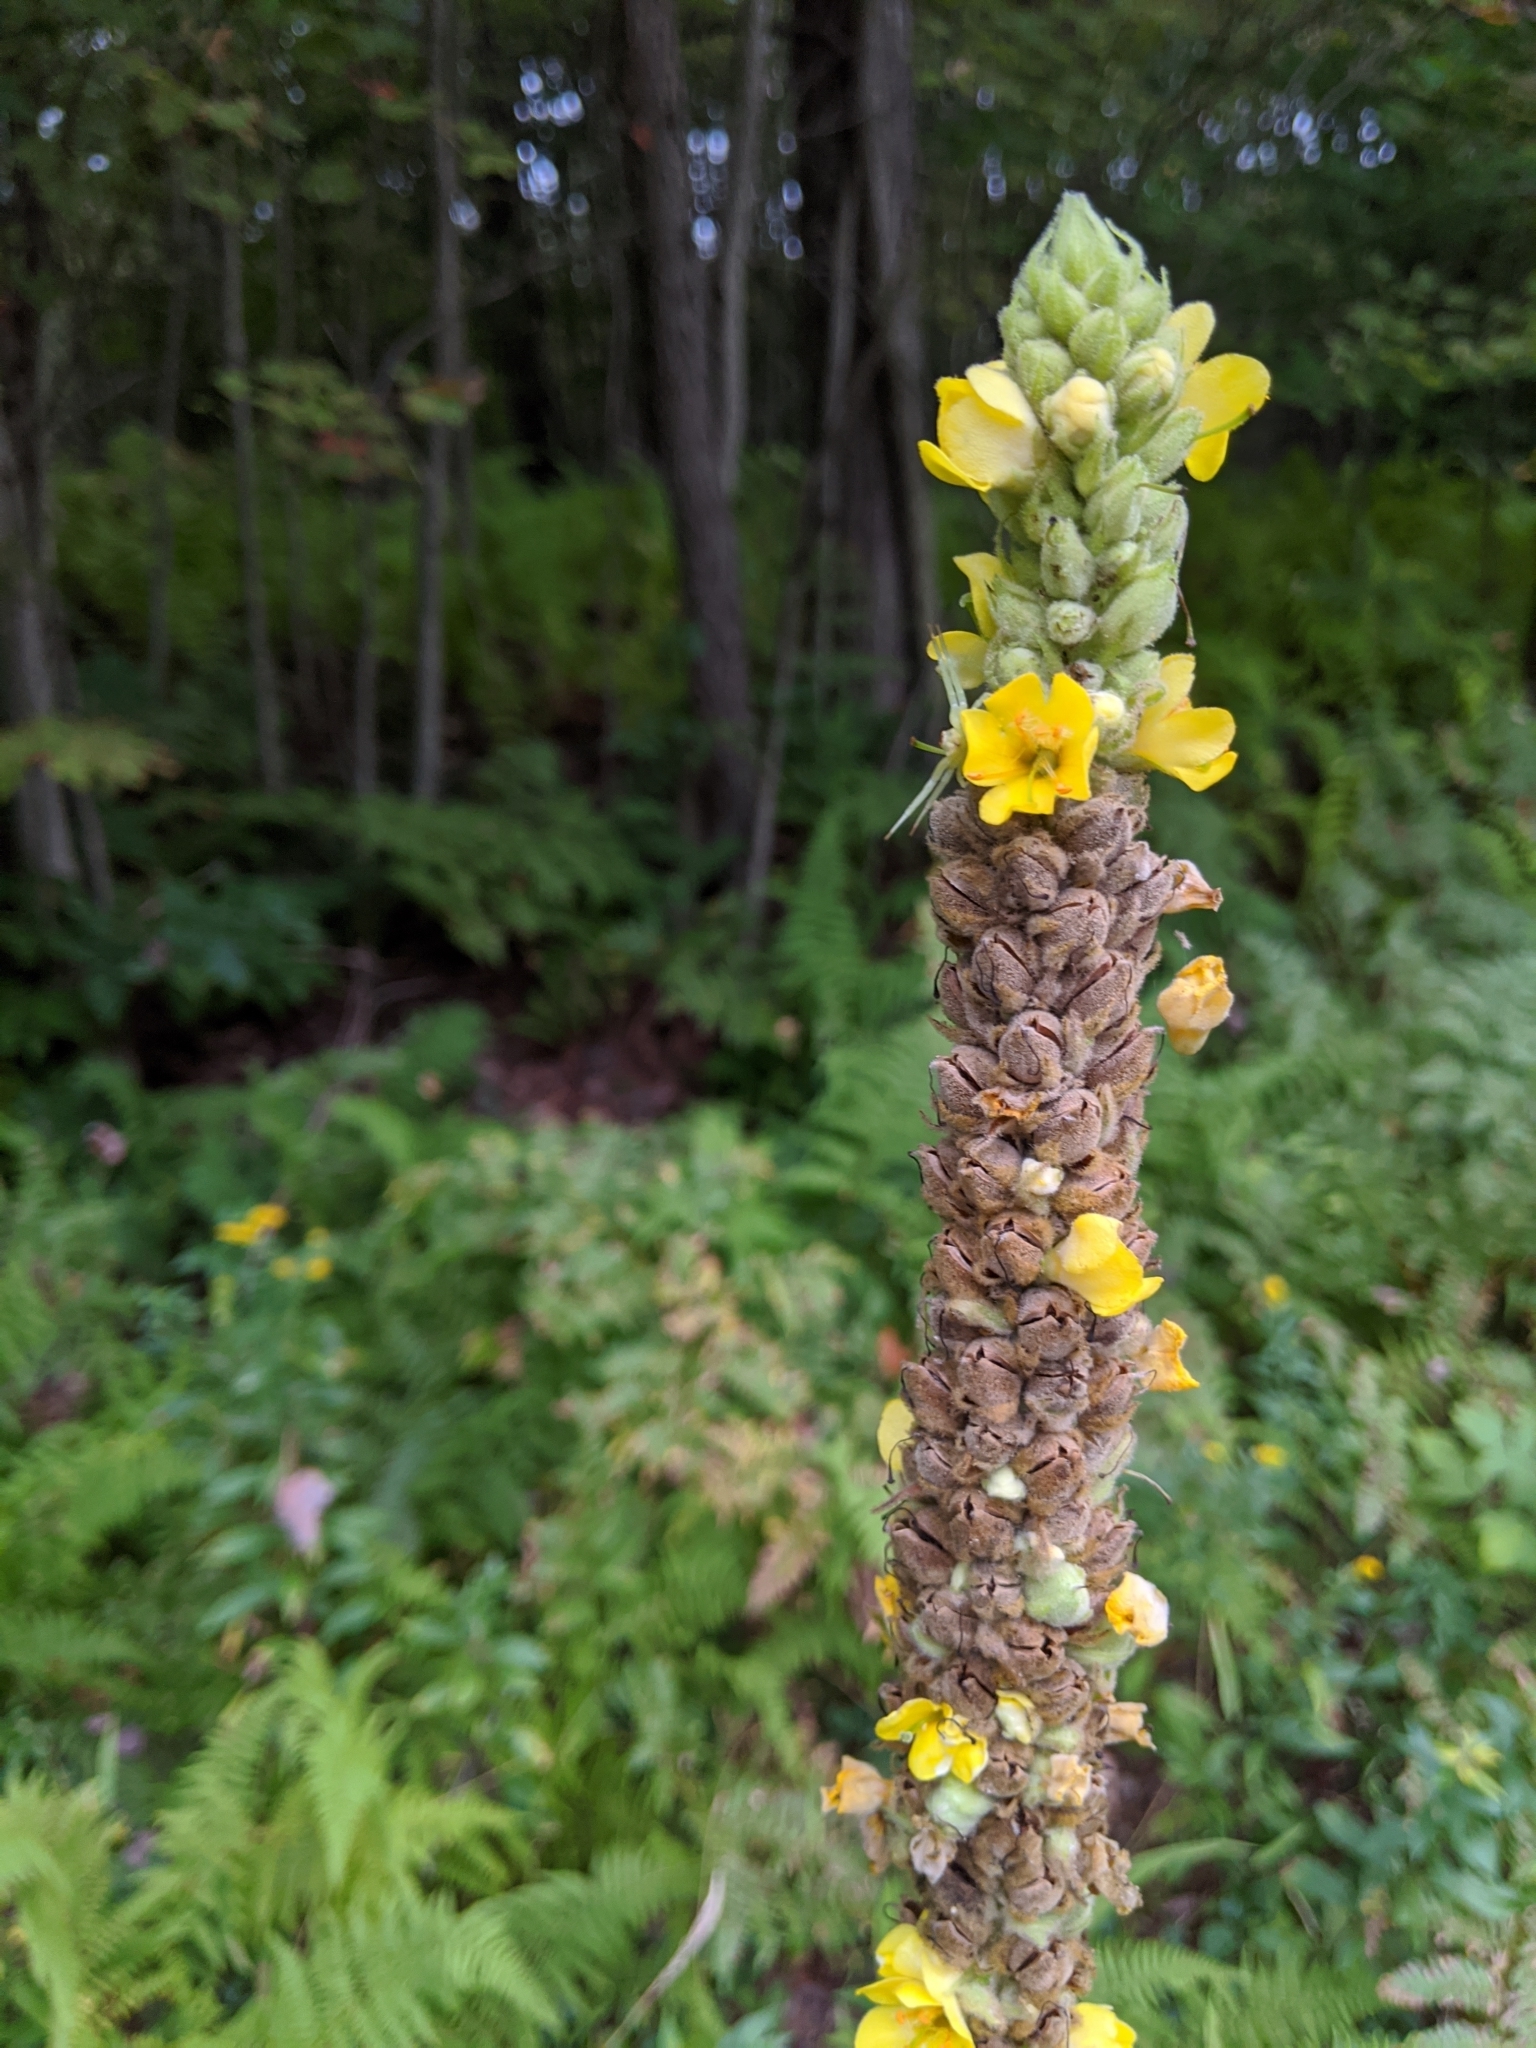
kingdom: Plantae
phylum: Tracheophyta
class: Magnoliopsida
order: Lamiales
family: Scrophulariaceae
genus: Verbascum
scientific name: Verbascum thapsus
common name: Common mullein
